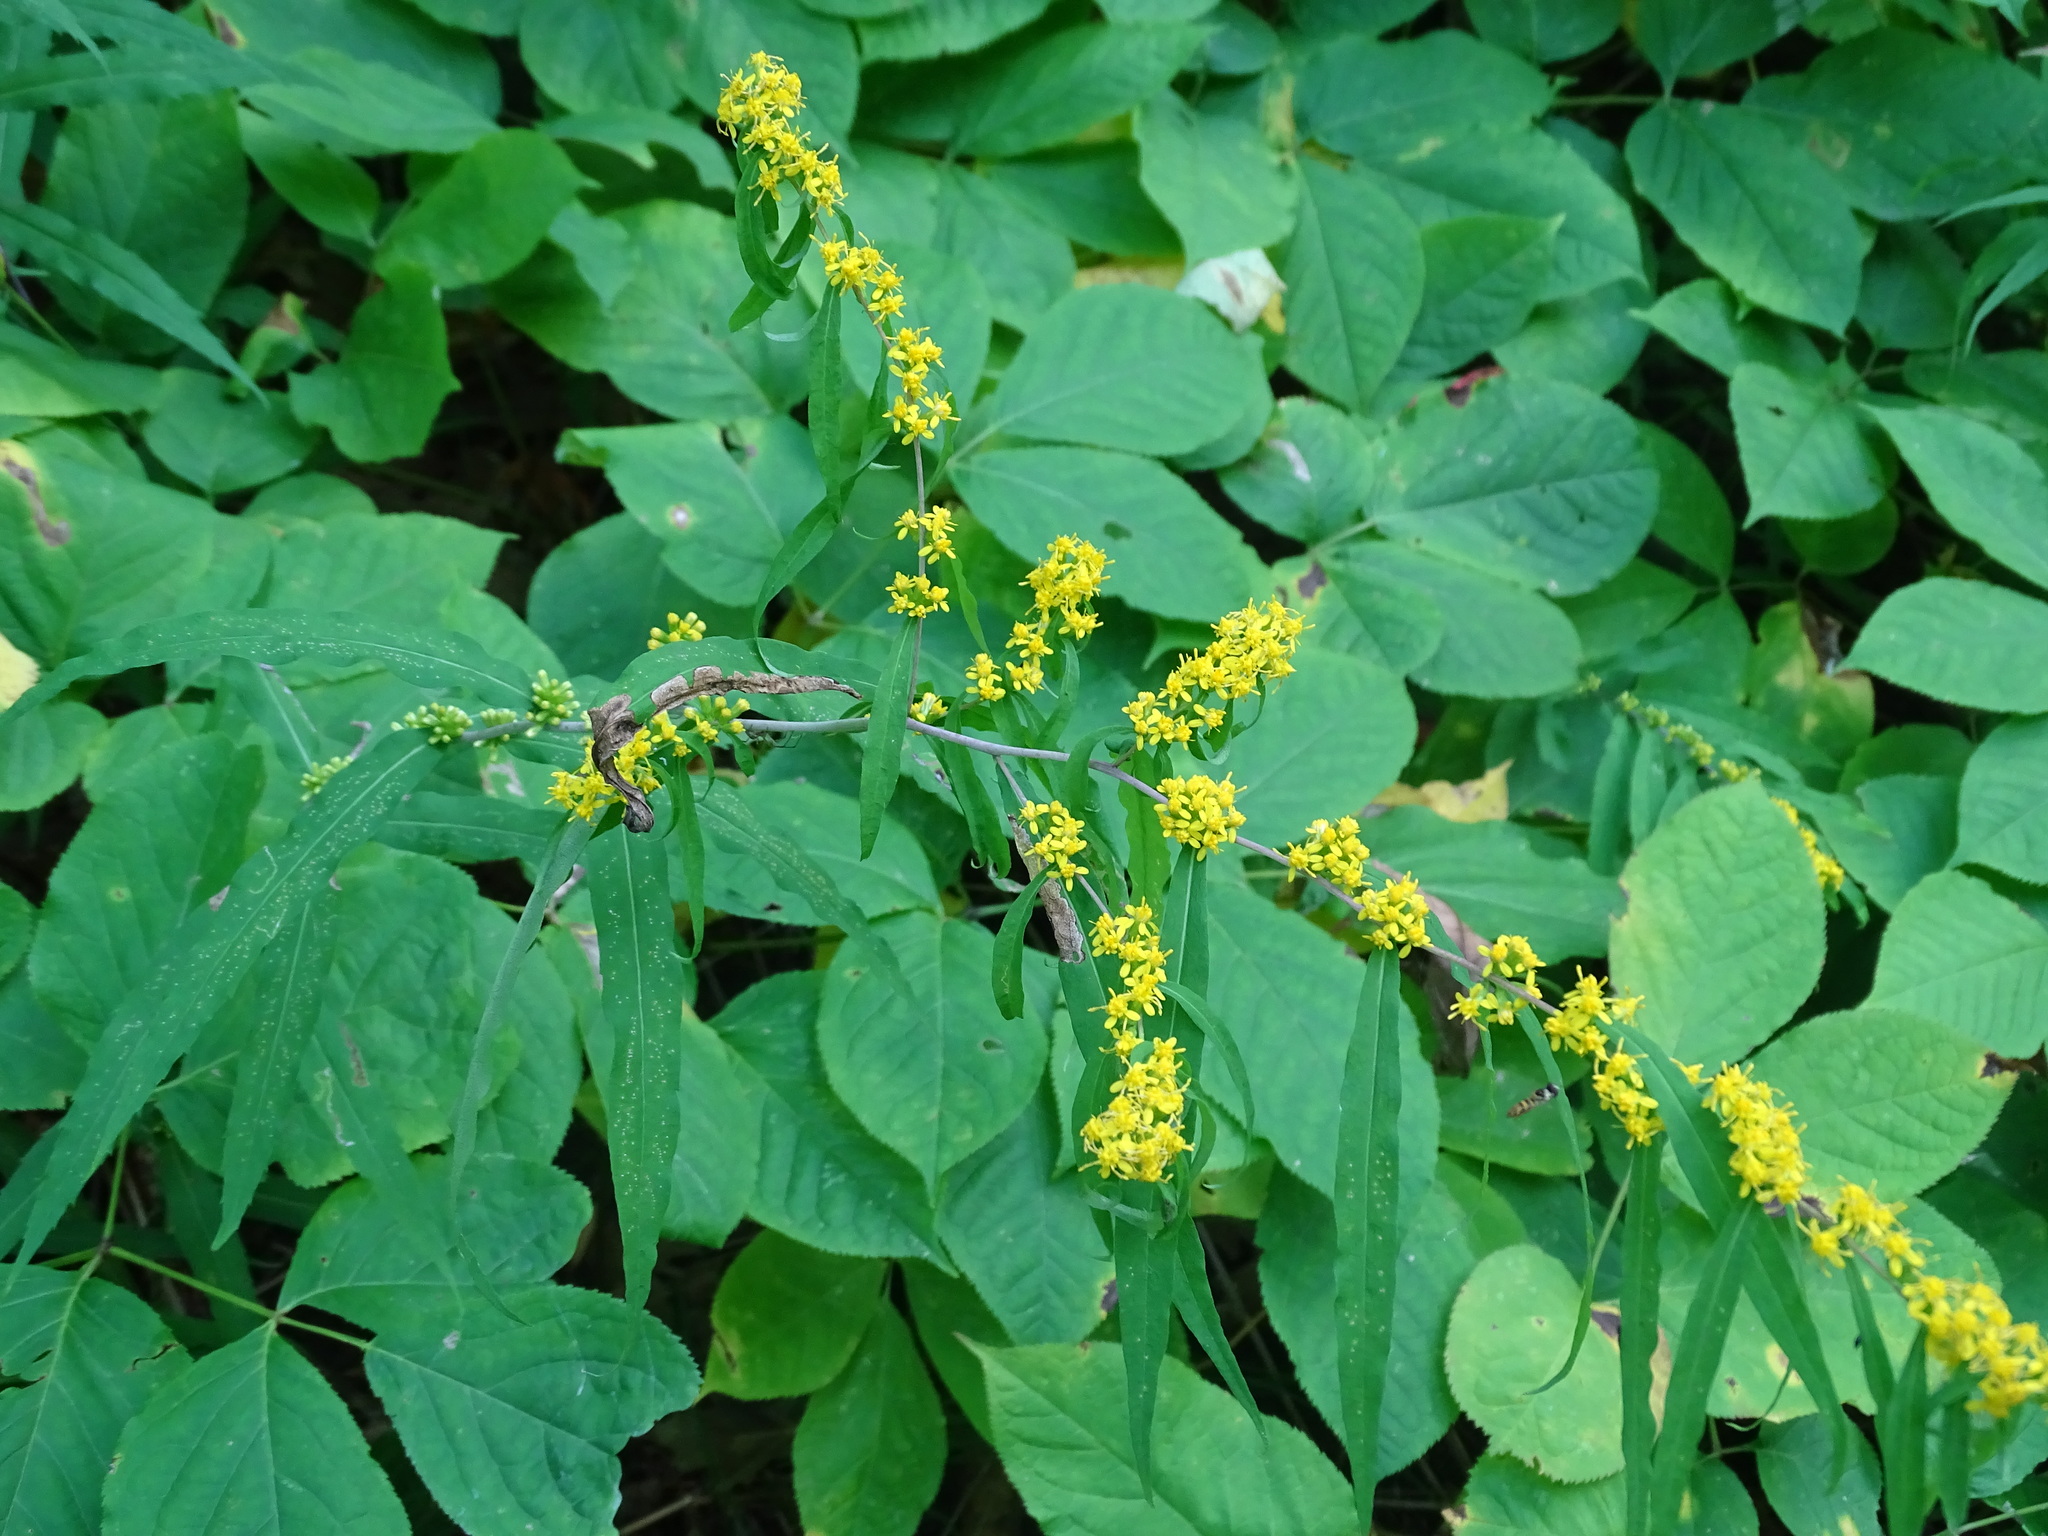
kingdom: Plantae
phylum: Tracheophyta
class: Magnoliopsida
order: Asterales
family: Asteraceae
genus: Solidago
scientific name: Solidago caesia
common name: Woodland goldenrod
